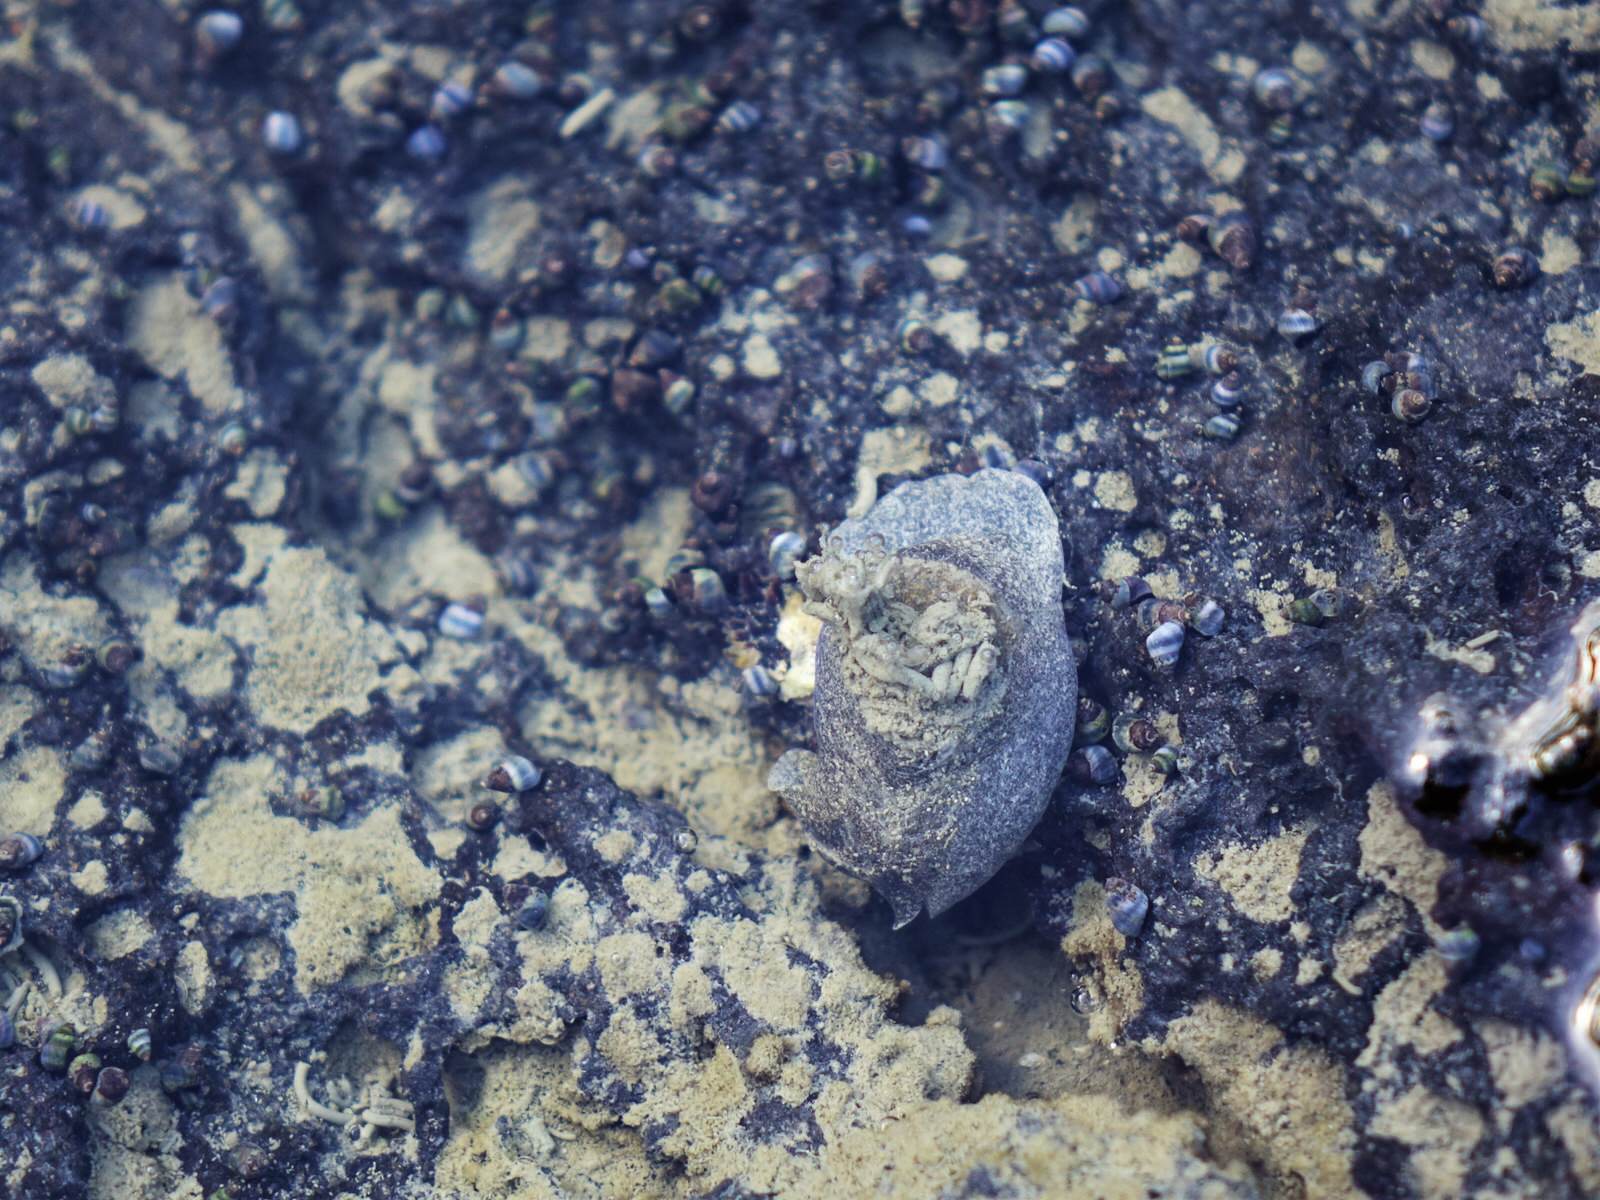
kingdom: Animalia
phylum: Mollusca
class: Gastropoda
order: Cephalaspidea
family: Haminoeidae
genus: Papawera
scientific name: Papawera zelandiae
